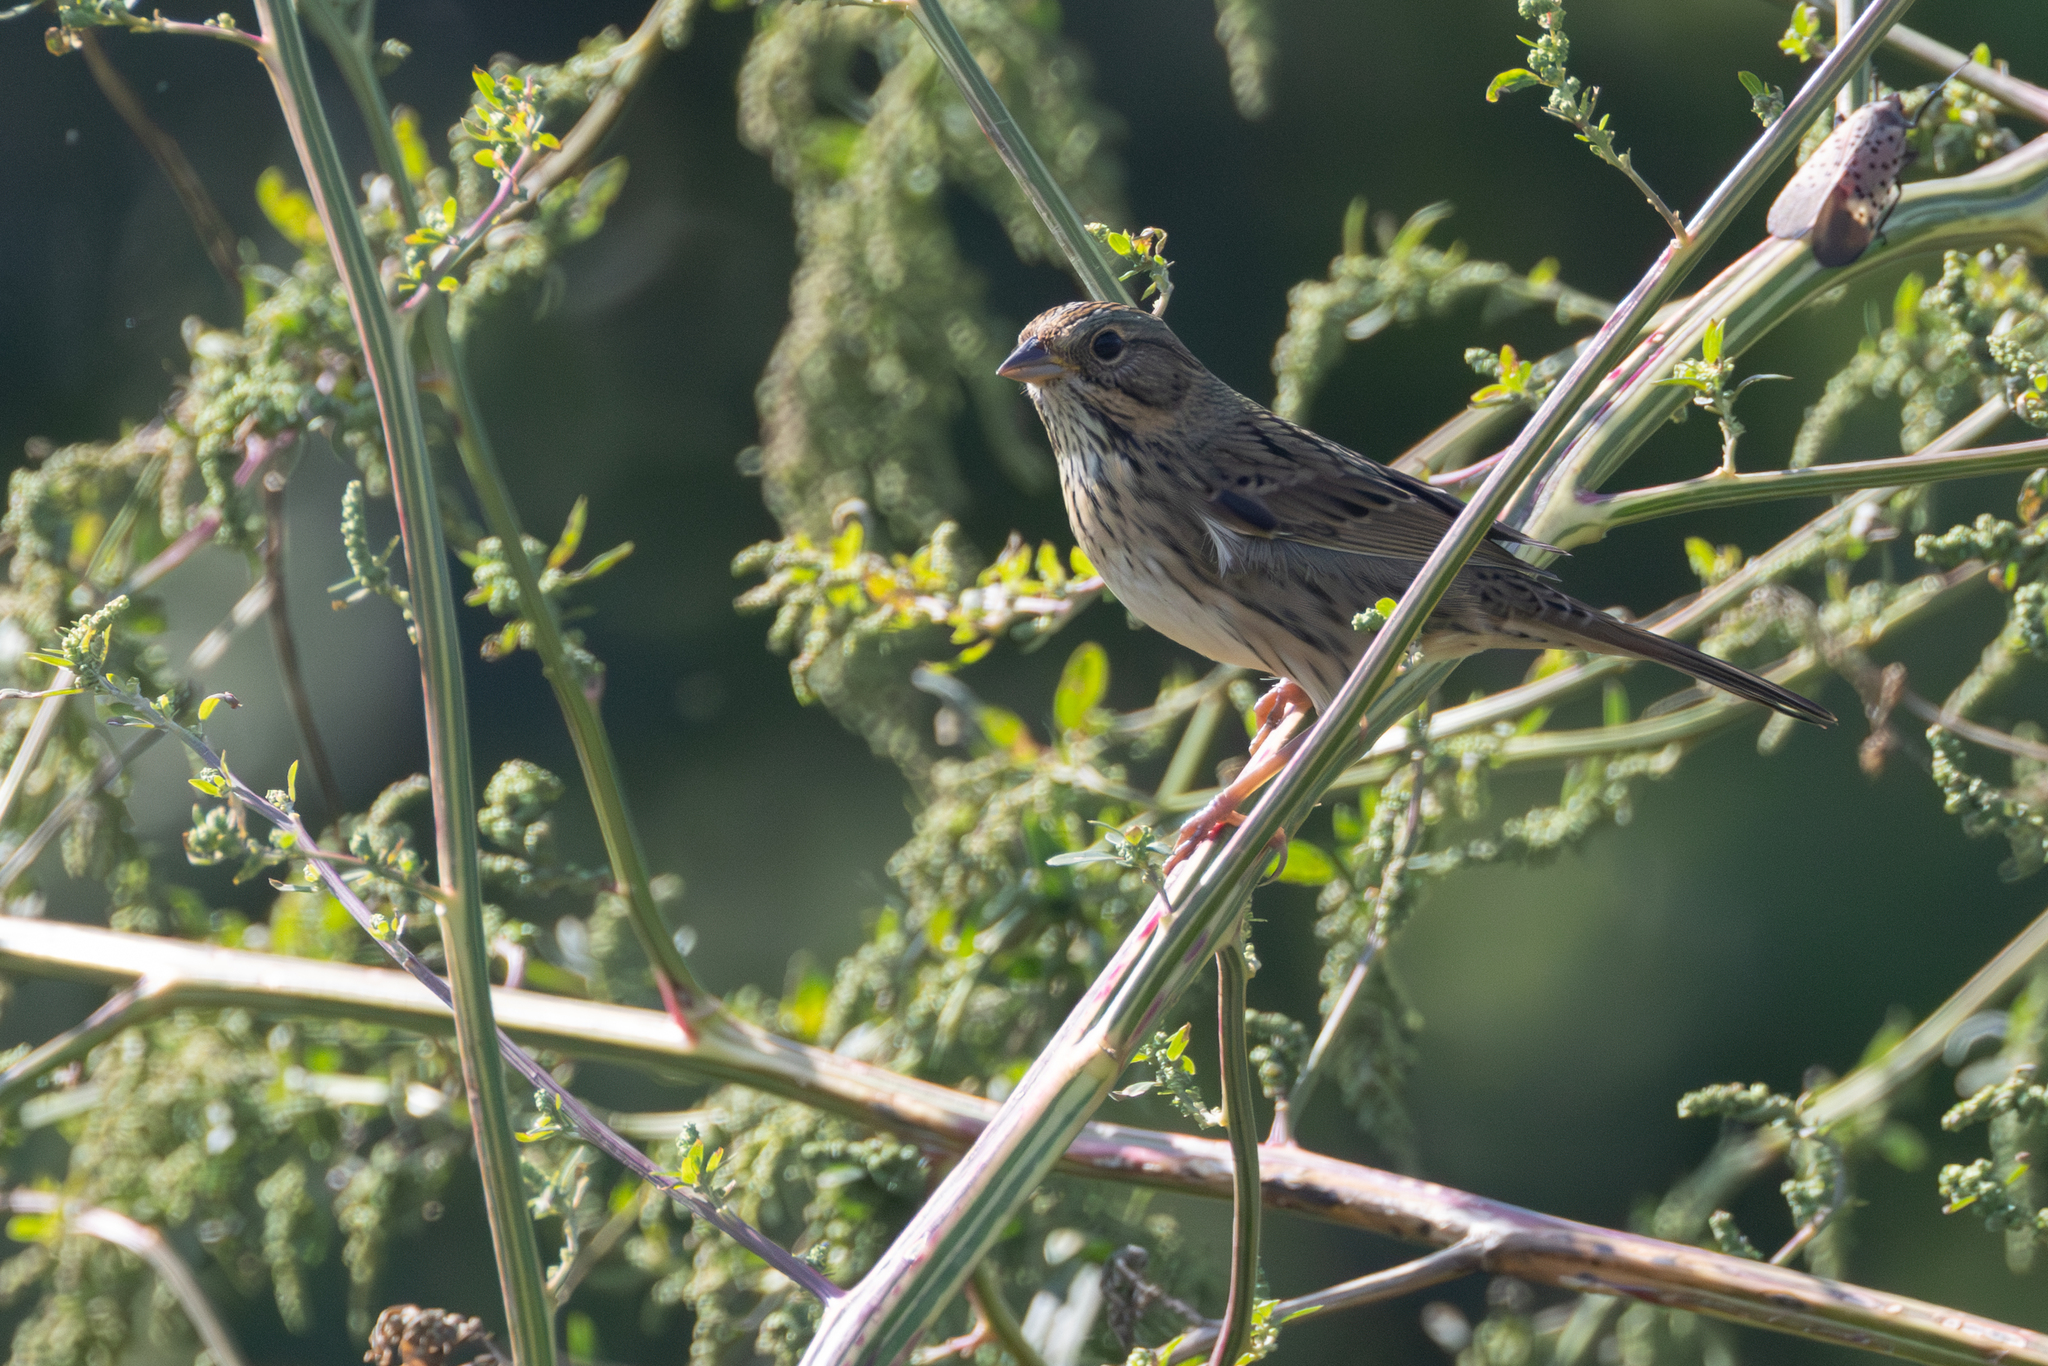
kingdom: Animalia
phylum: Chordata
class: Aves
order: Passeriformes
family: Passerellidae
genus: Melospiza
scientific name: Melospiza lincolnii
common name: Lincoln's sparrow
